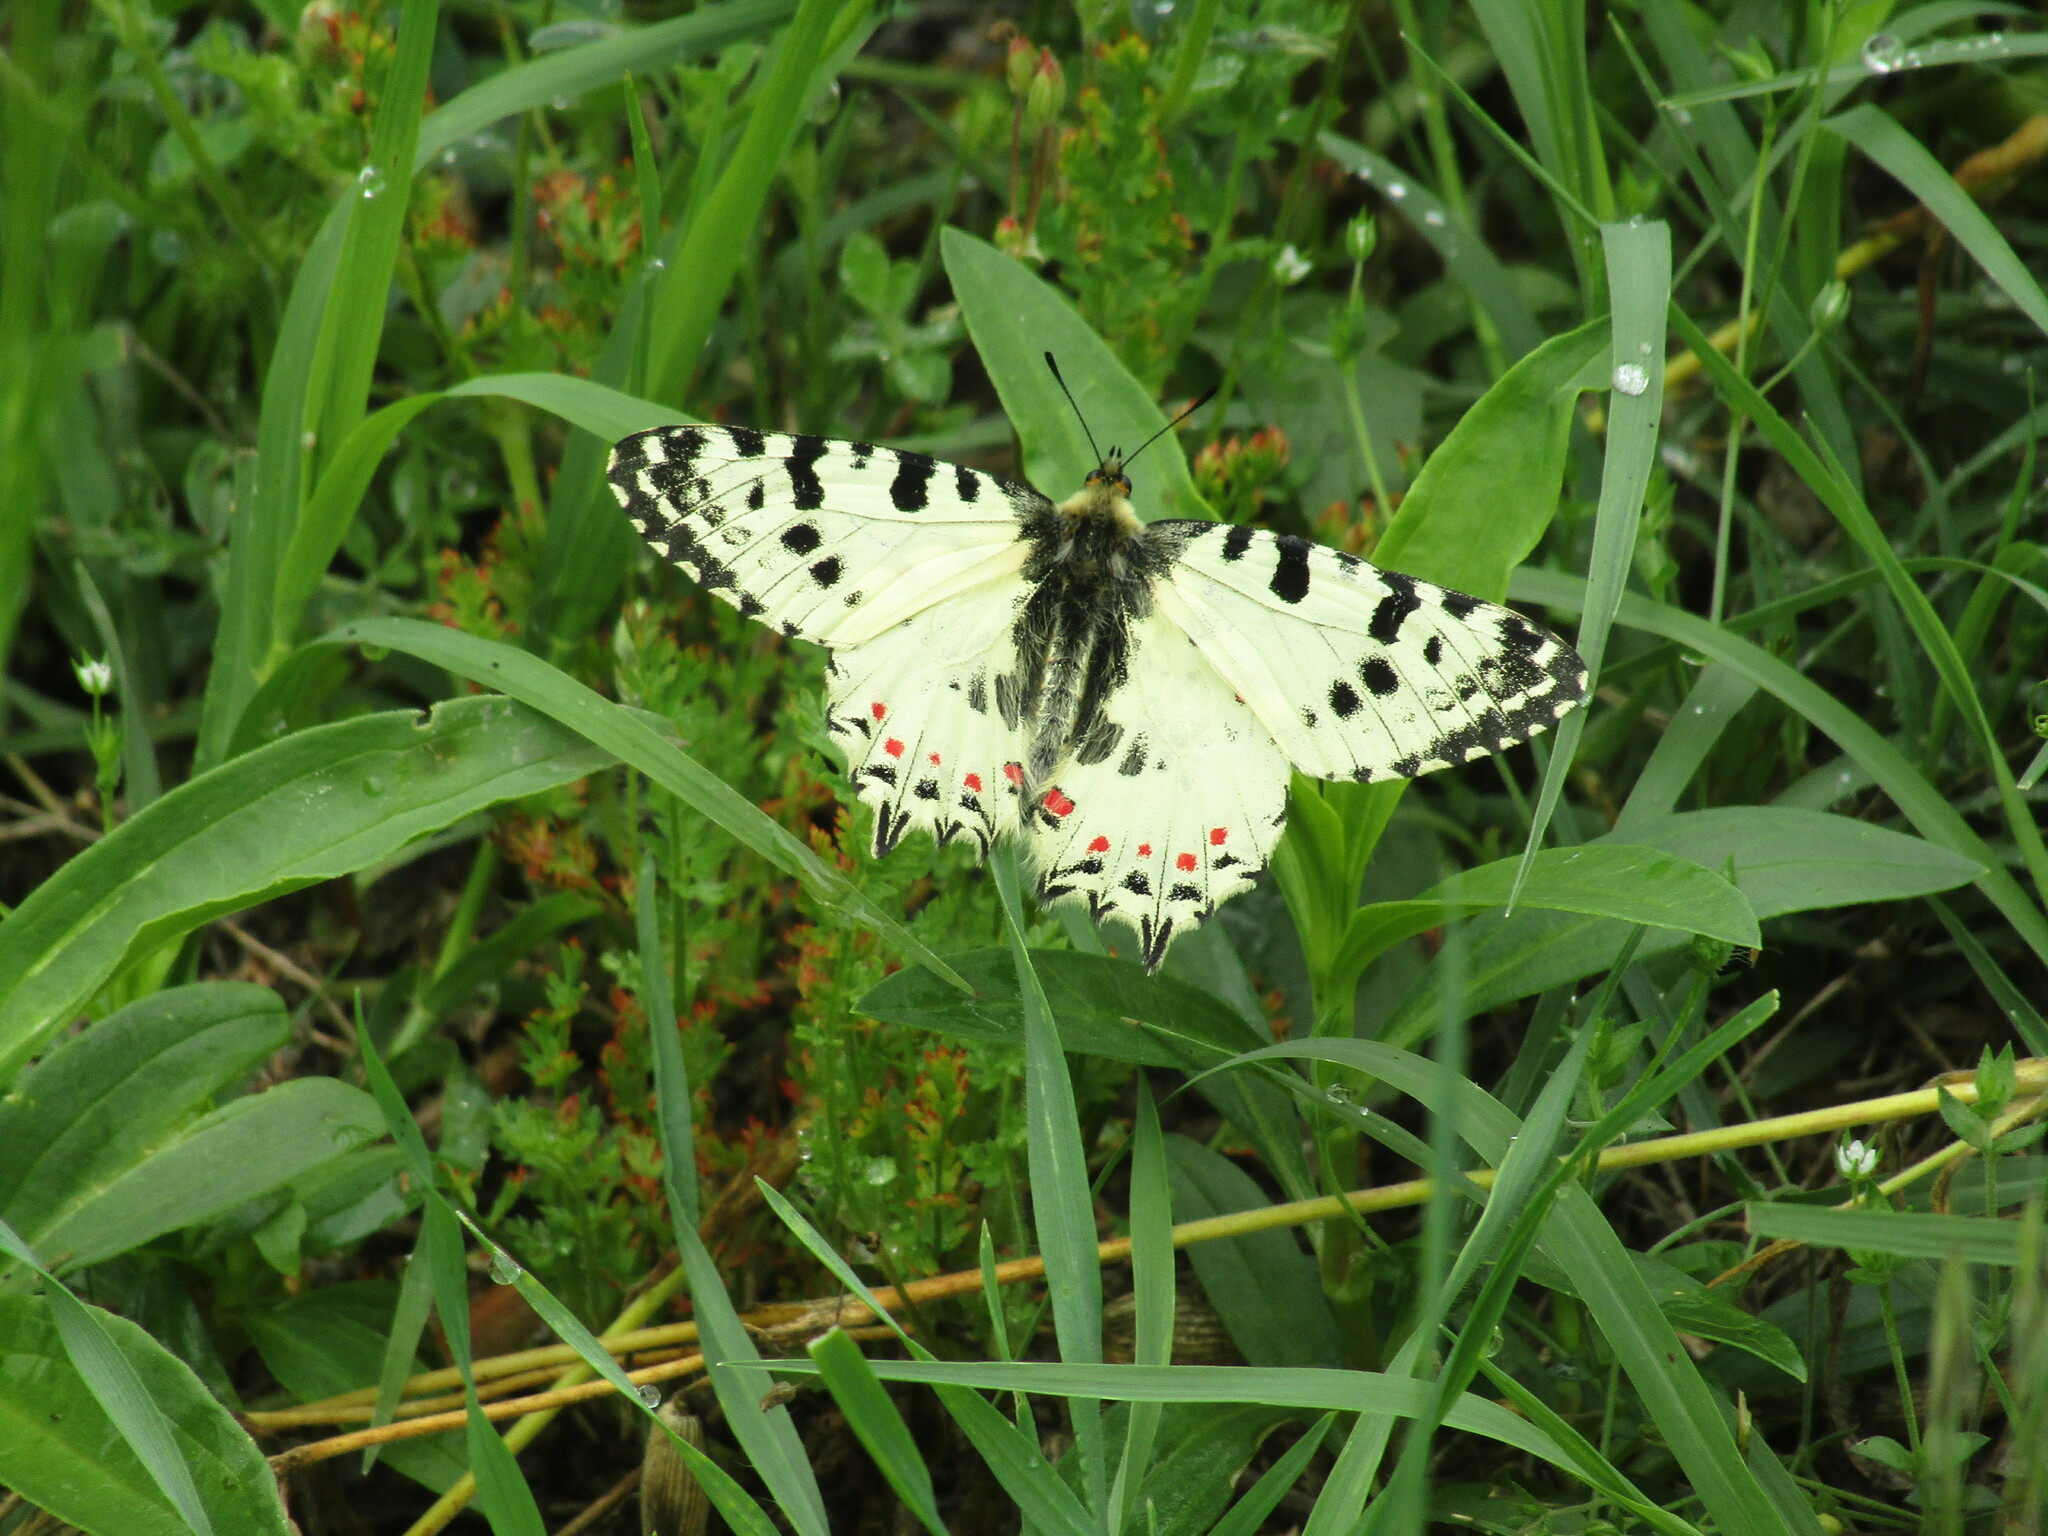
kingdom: Animalia
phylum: Arthropoda
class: Insecta
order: Lepidoptera
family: Papilionidae
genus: Zerynthia
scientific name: Zerynthia cerisy
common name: Eastern festoon
